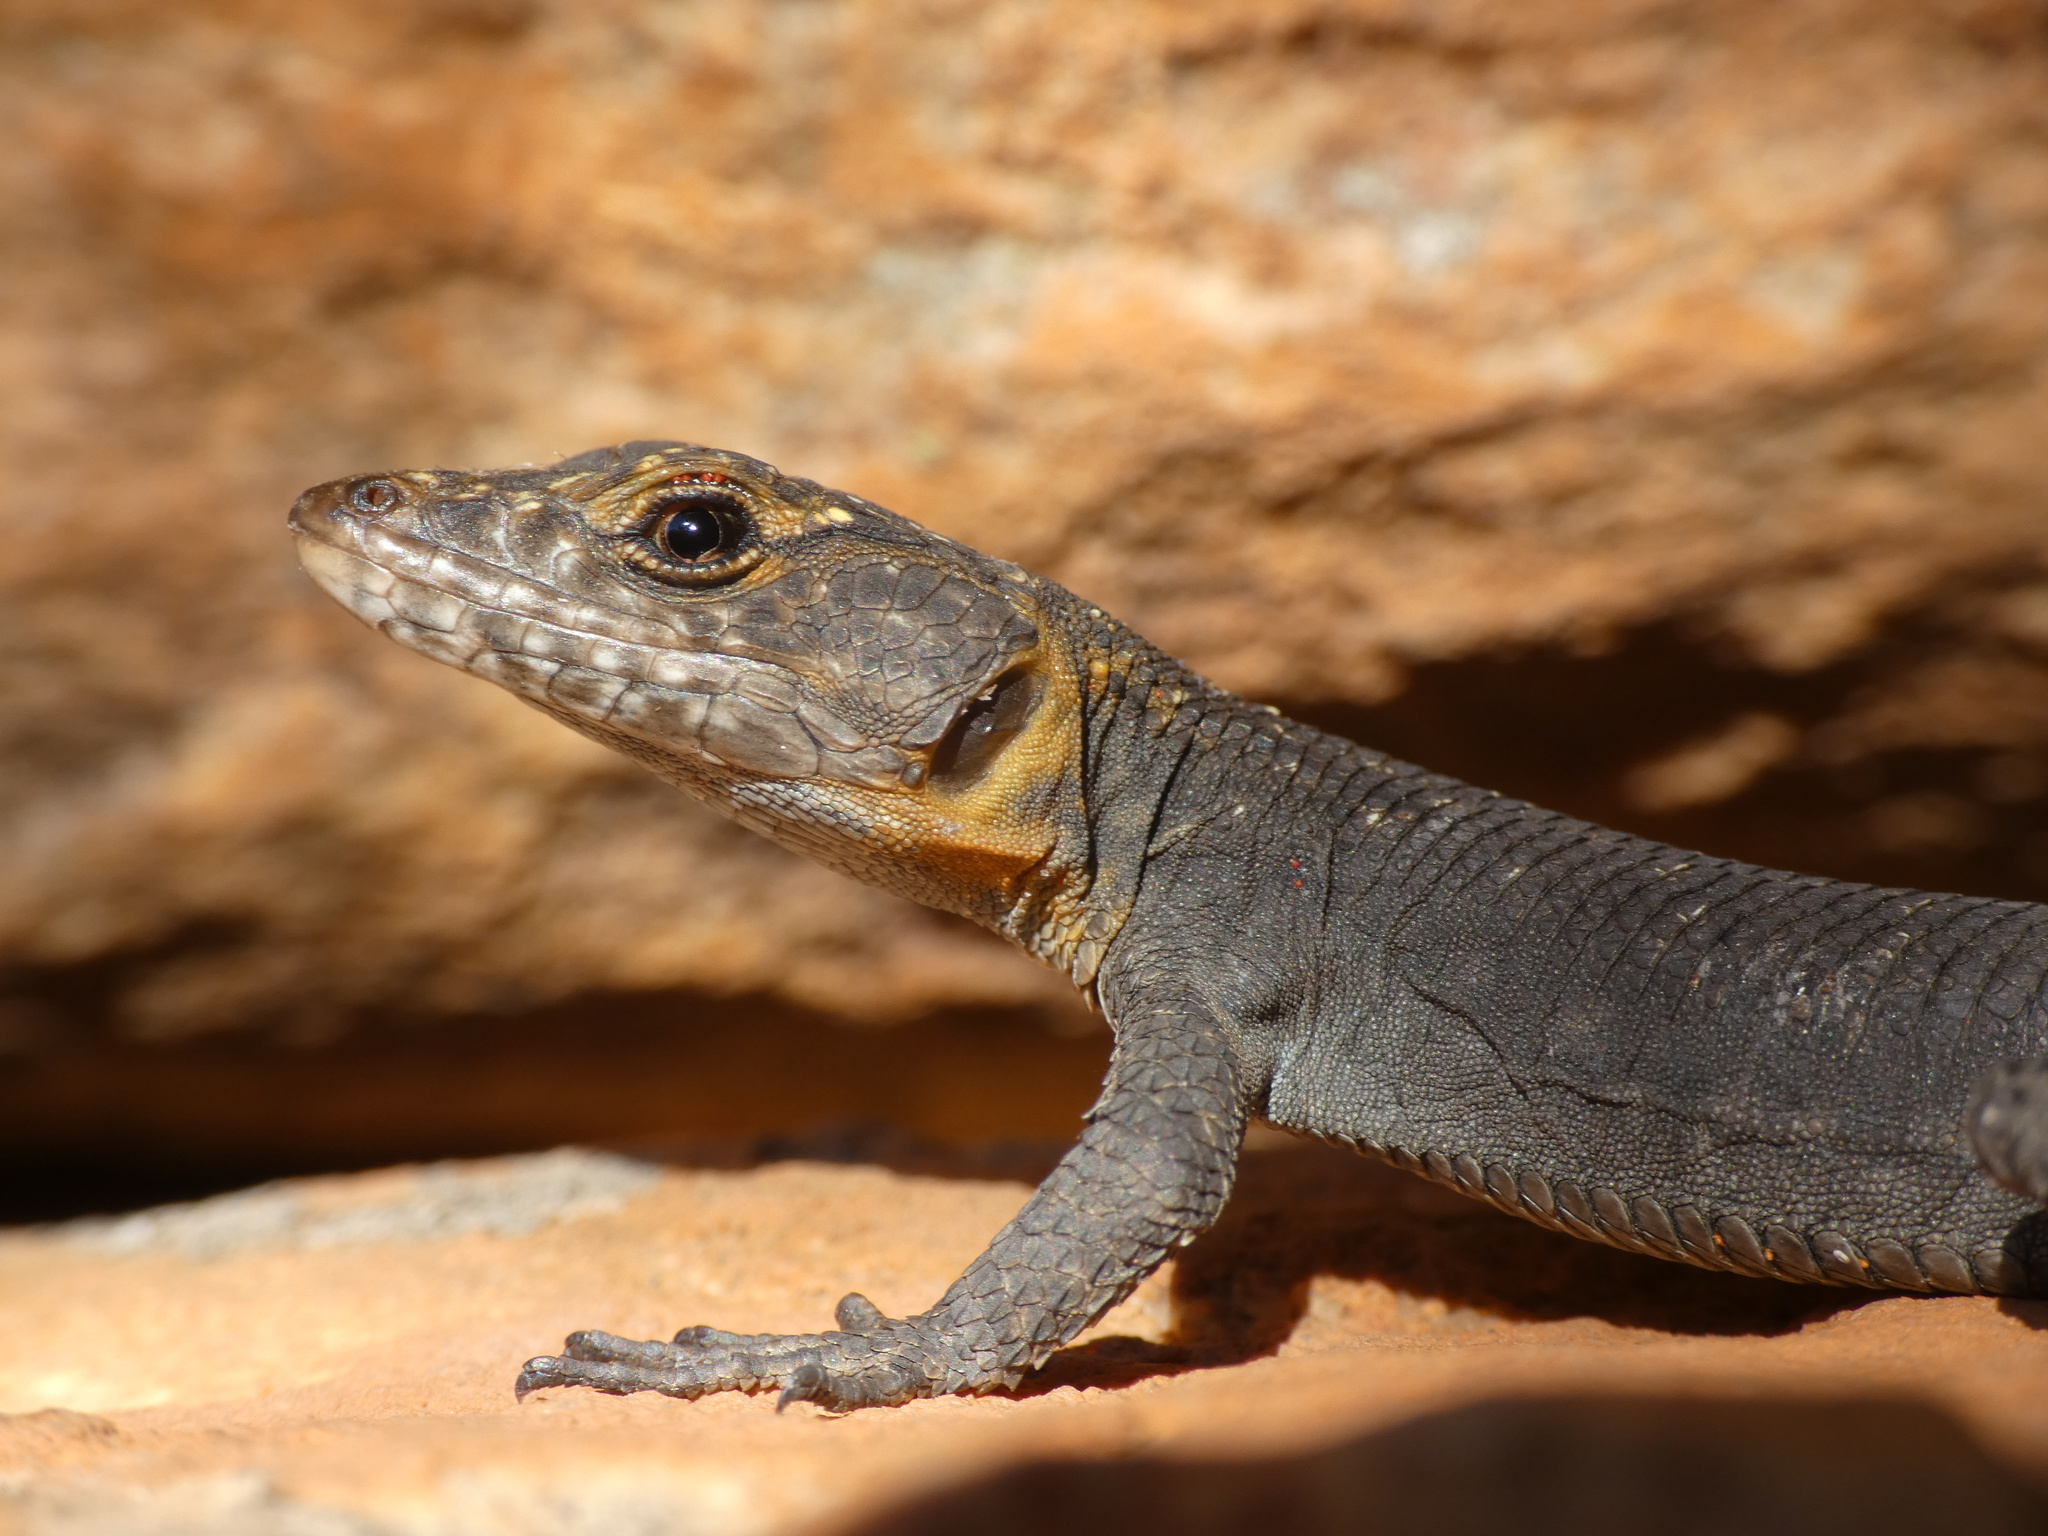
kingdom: Animalia
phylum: Chordata
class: Squamata
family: Cordylidae
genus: Hemicordylus
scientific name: Hemicordylus capensis
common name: Graceful crag lizard
